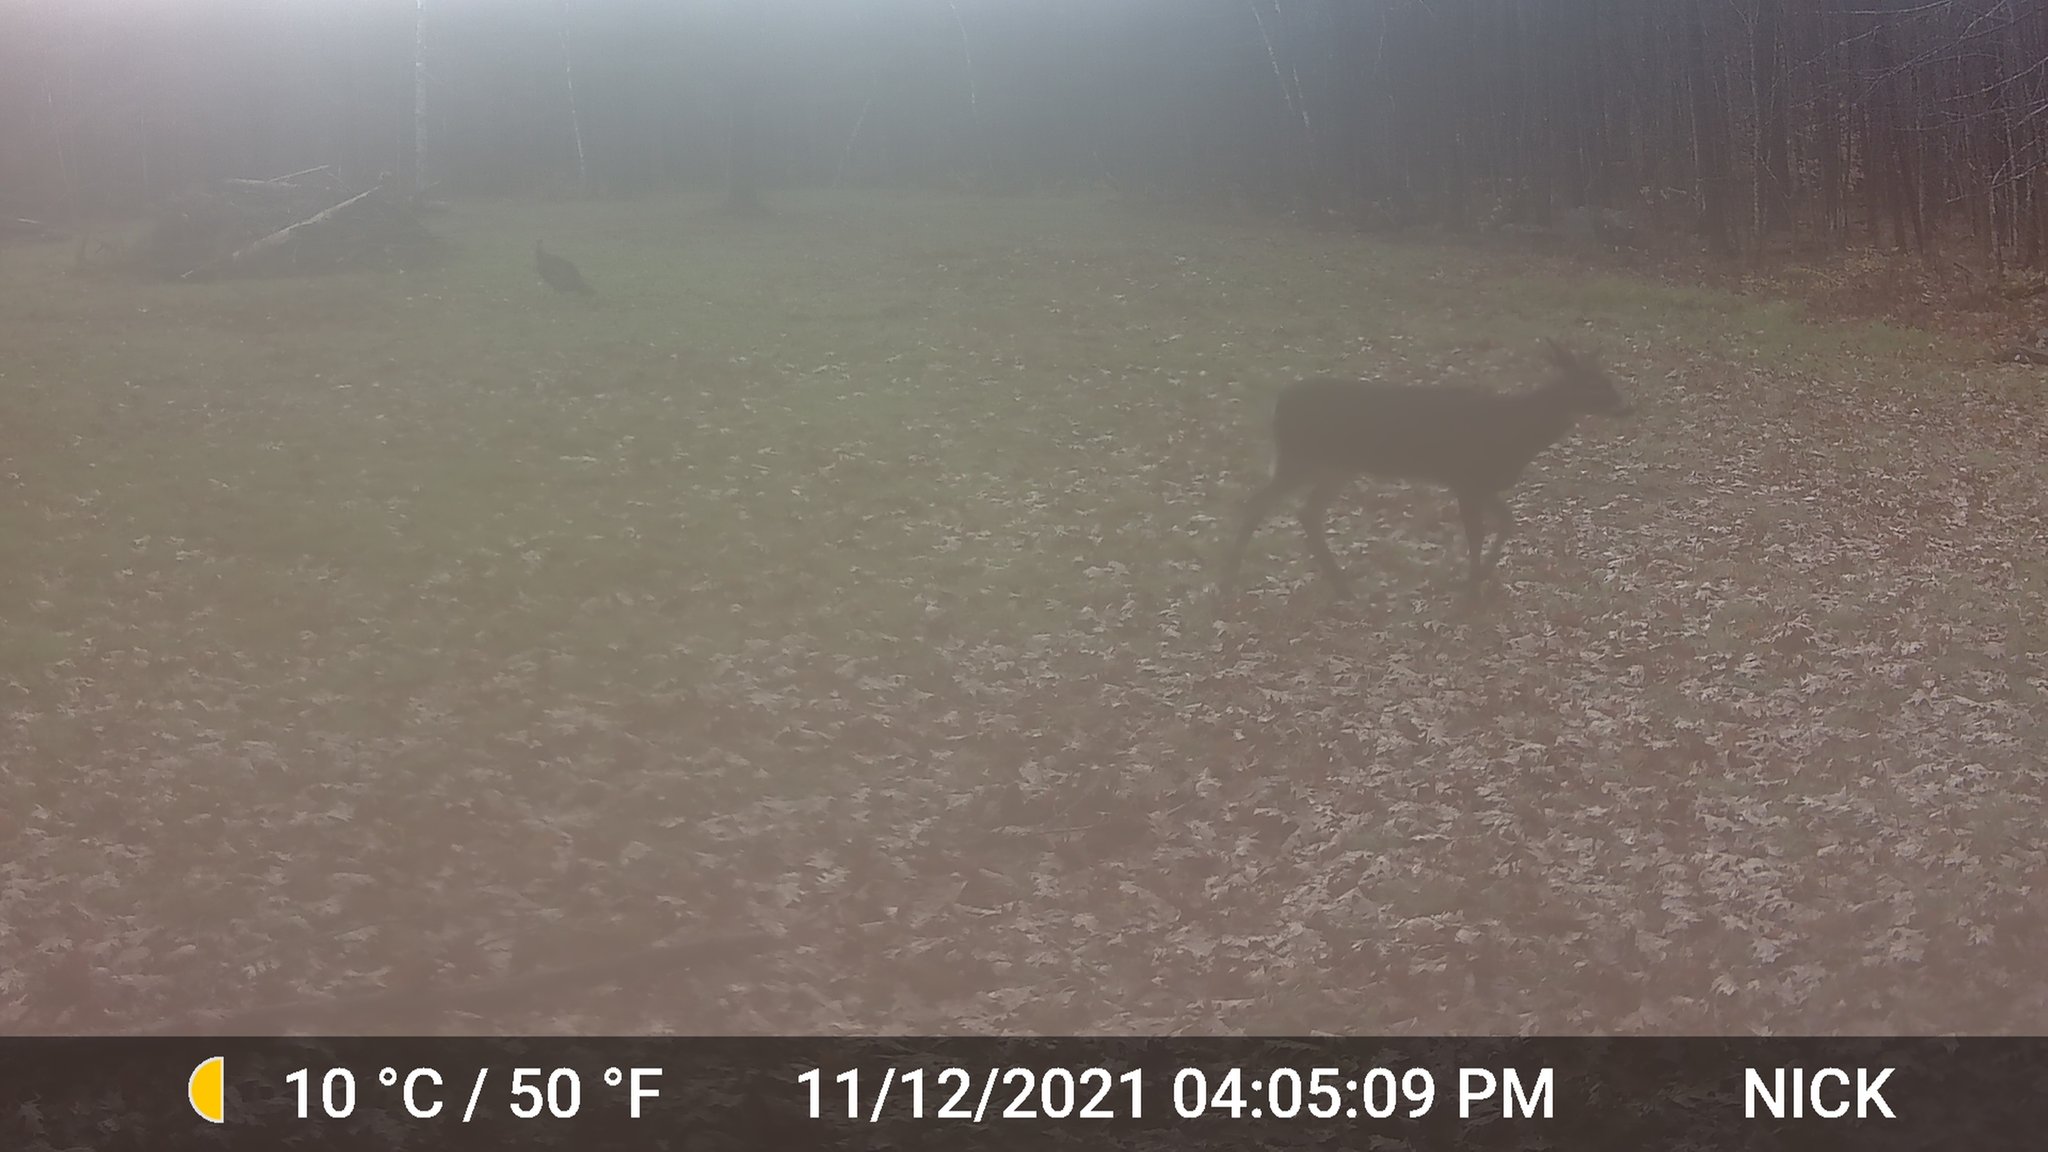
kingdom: Animalia
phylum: Chordata
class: Mammalia
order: Artiodactyla
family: Cervidae
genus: Odocoileus
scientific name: Odocoileus virginianus
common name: White-tailed deer
